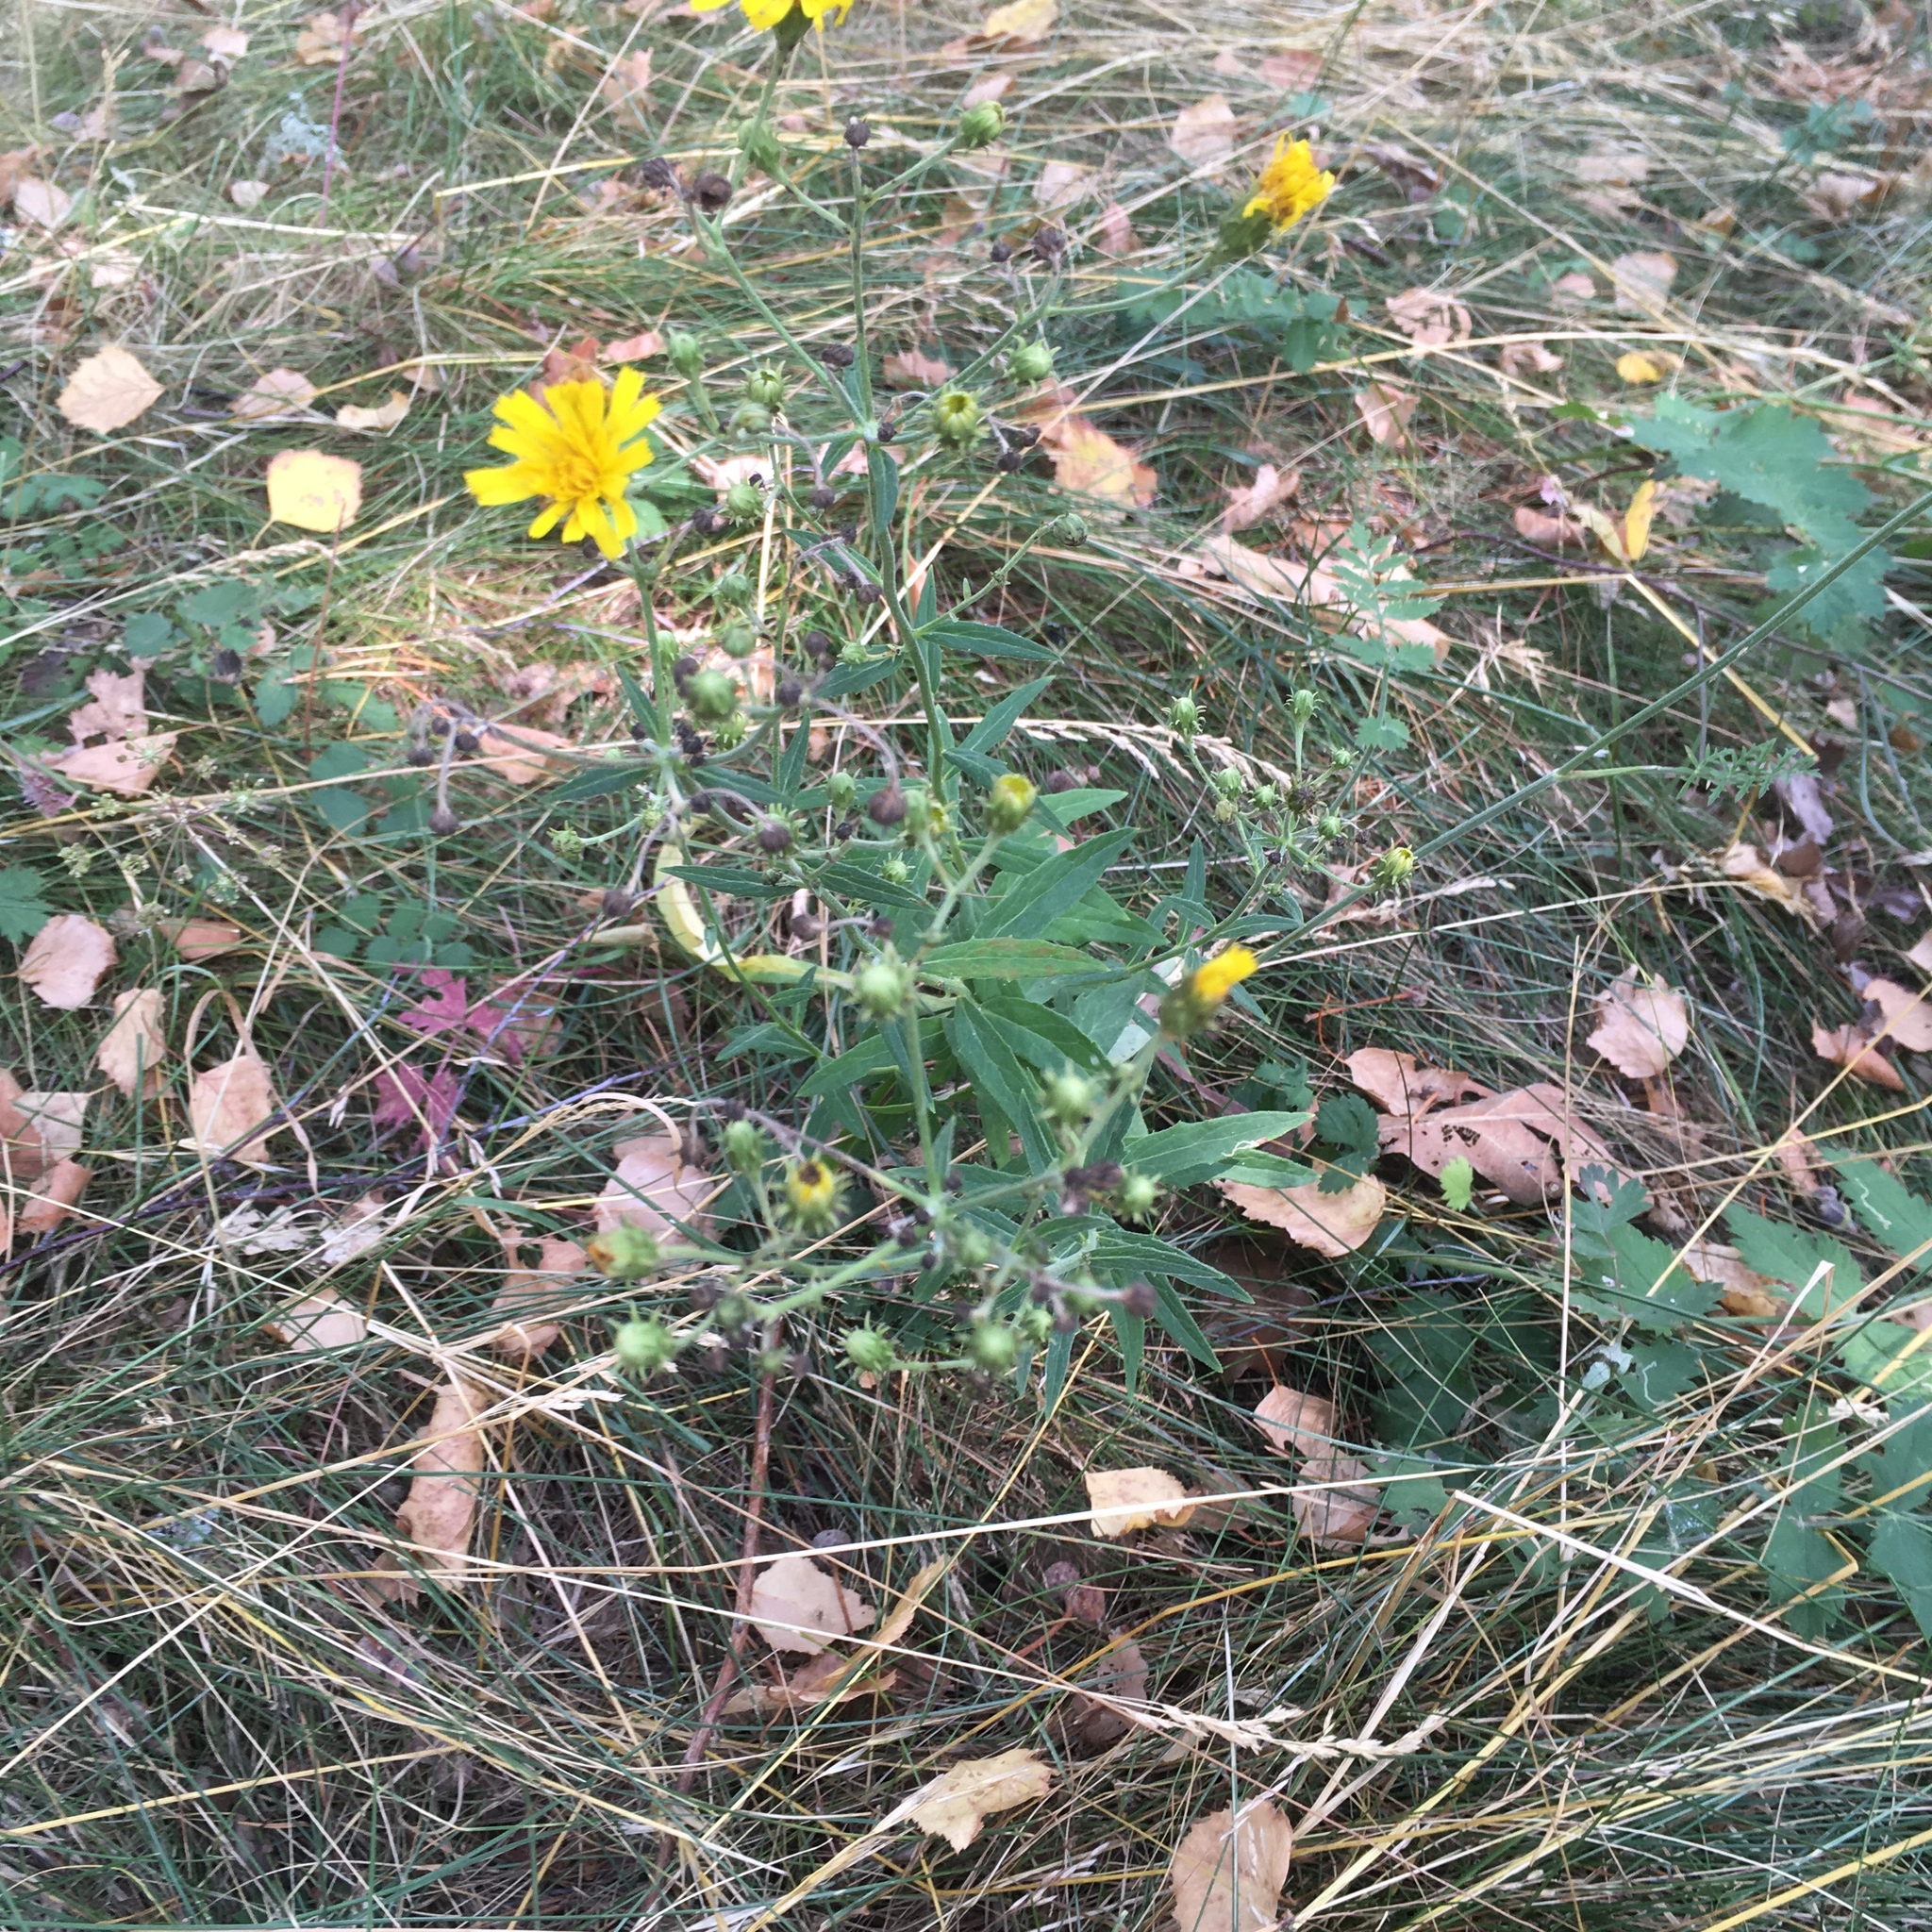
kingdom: Plantae
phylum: Tracheophyta
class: Magnoliopsida
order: Asterales
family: Asteraceae
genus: Hieracium
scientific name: Hieracium umbellatum
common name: Northern hawkweed
